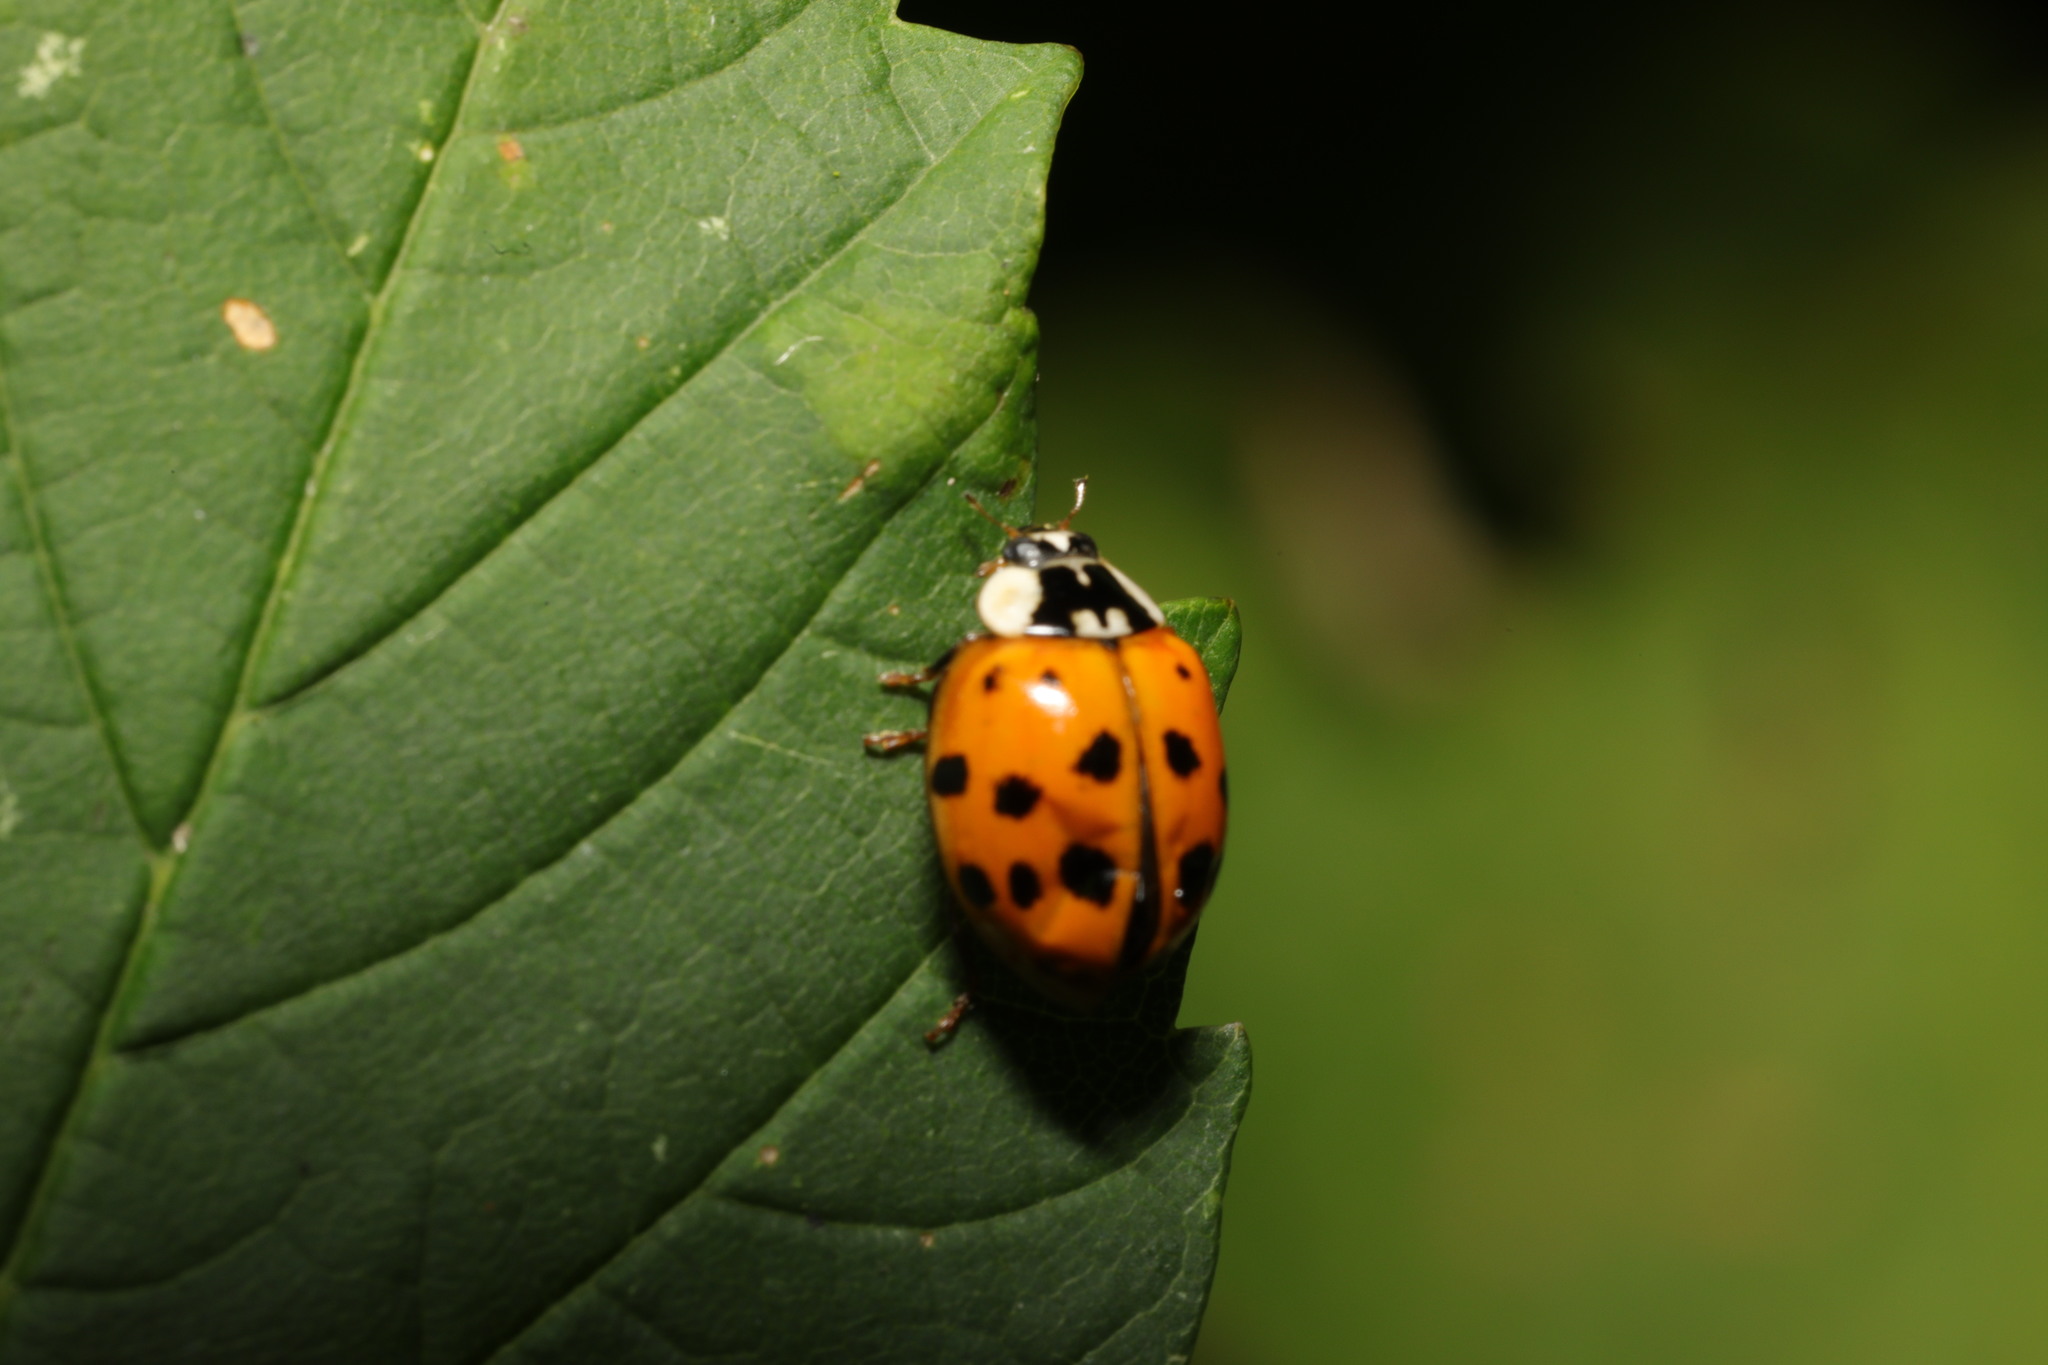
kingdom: Animalia
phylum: Arthropoda
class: Insecta
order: Coleoptera
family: Coccinellidae
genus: Harmonia
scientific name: Harmonia axyridis
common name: Harlequin ladybird
